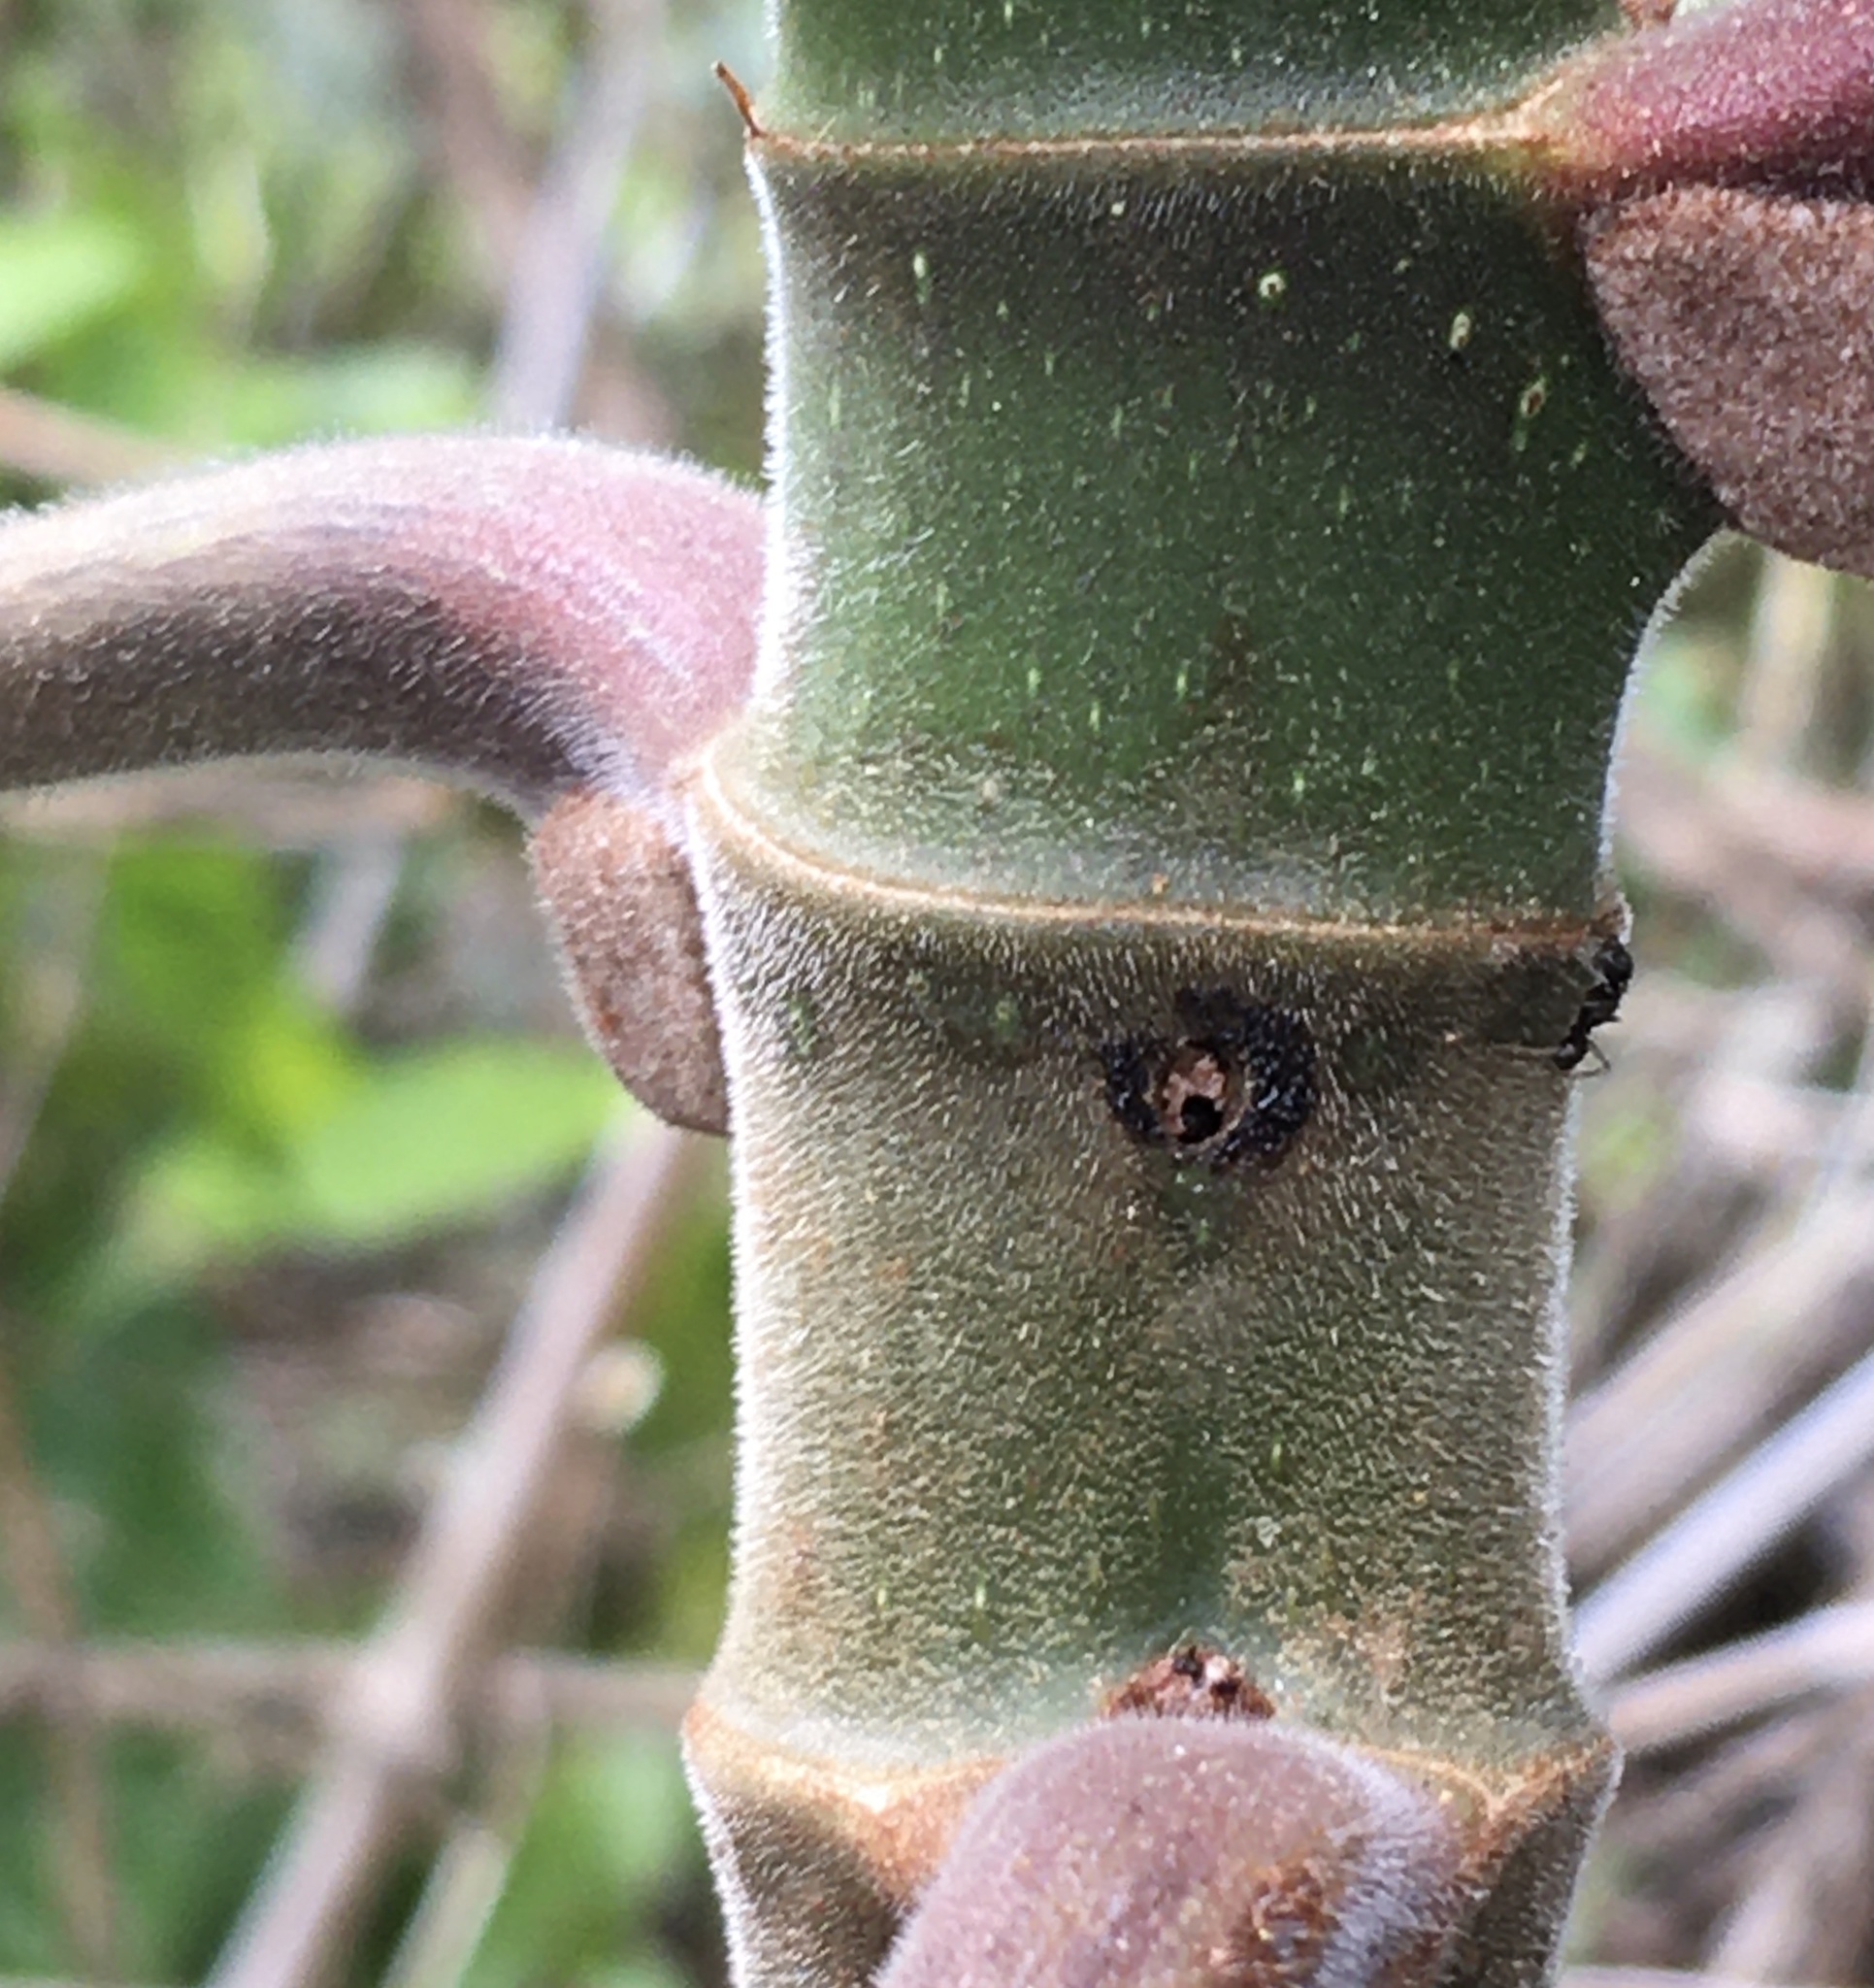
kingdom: Plantae
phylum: Tracheophyta
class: Magnoliopsida
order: Rosales
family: Urticaceae
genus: Cecropia
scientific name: Cecropia peltata
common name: Trumpet-tree
